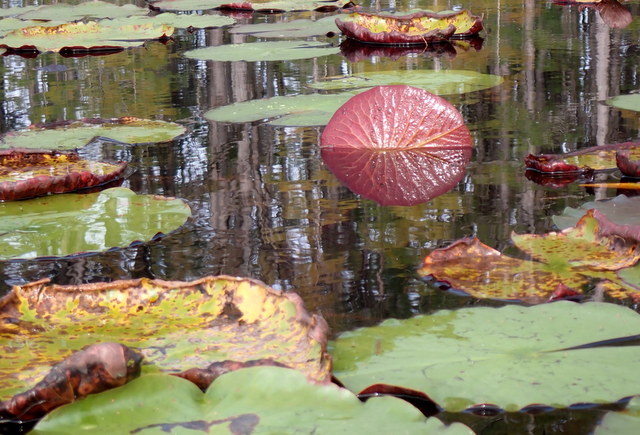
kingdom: Plantae
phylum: Tracheophyta
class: Magnoliopsida
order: Nymphaeales
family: Nymphaeaceae
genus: Nymphaea
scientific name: Nymphaea odorata
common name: Fragrant water-lily
